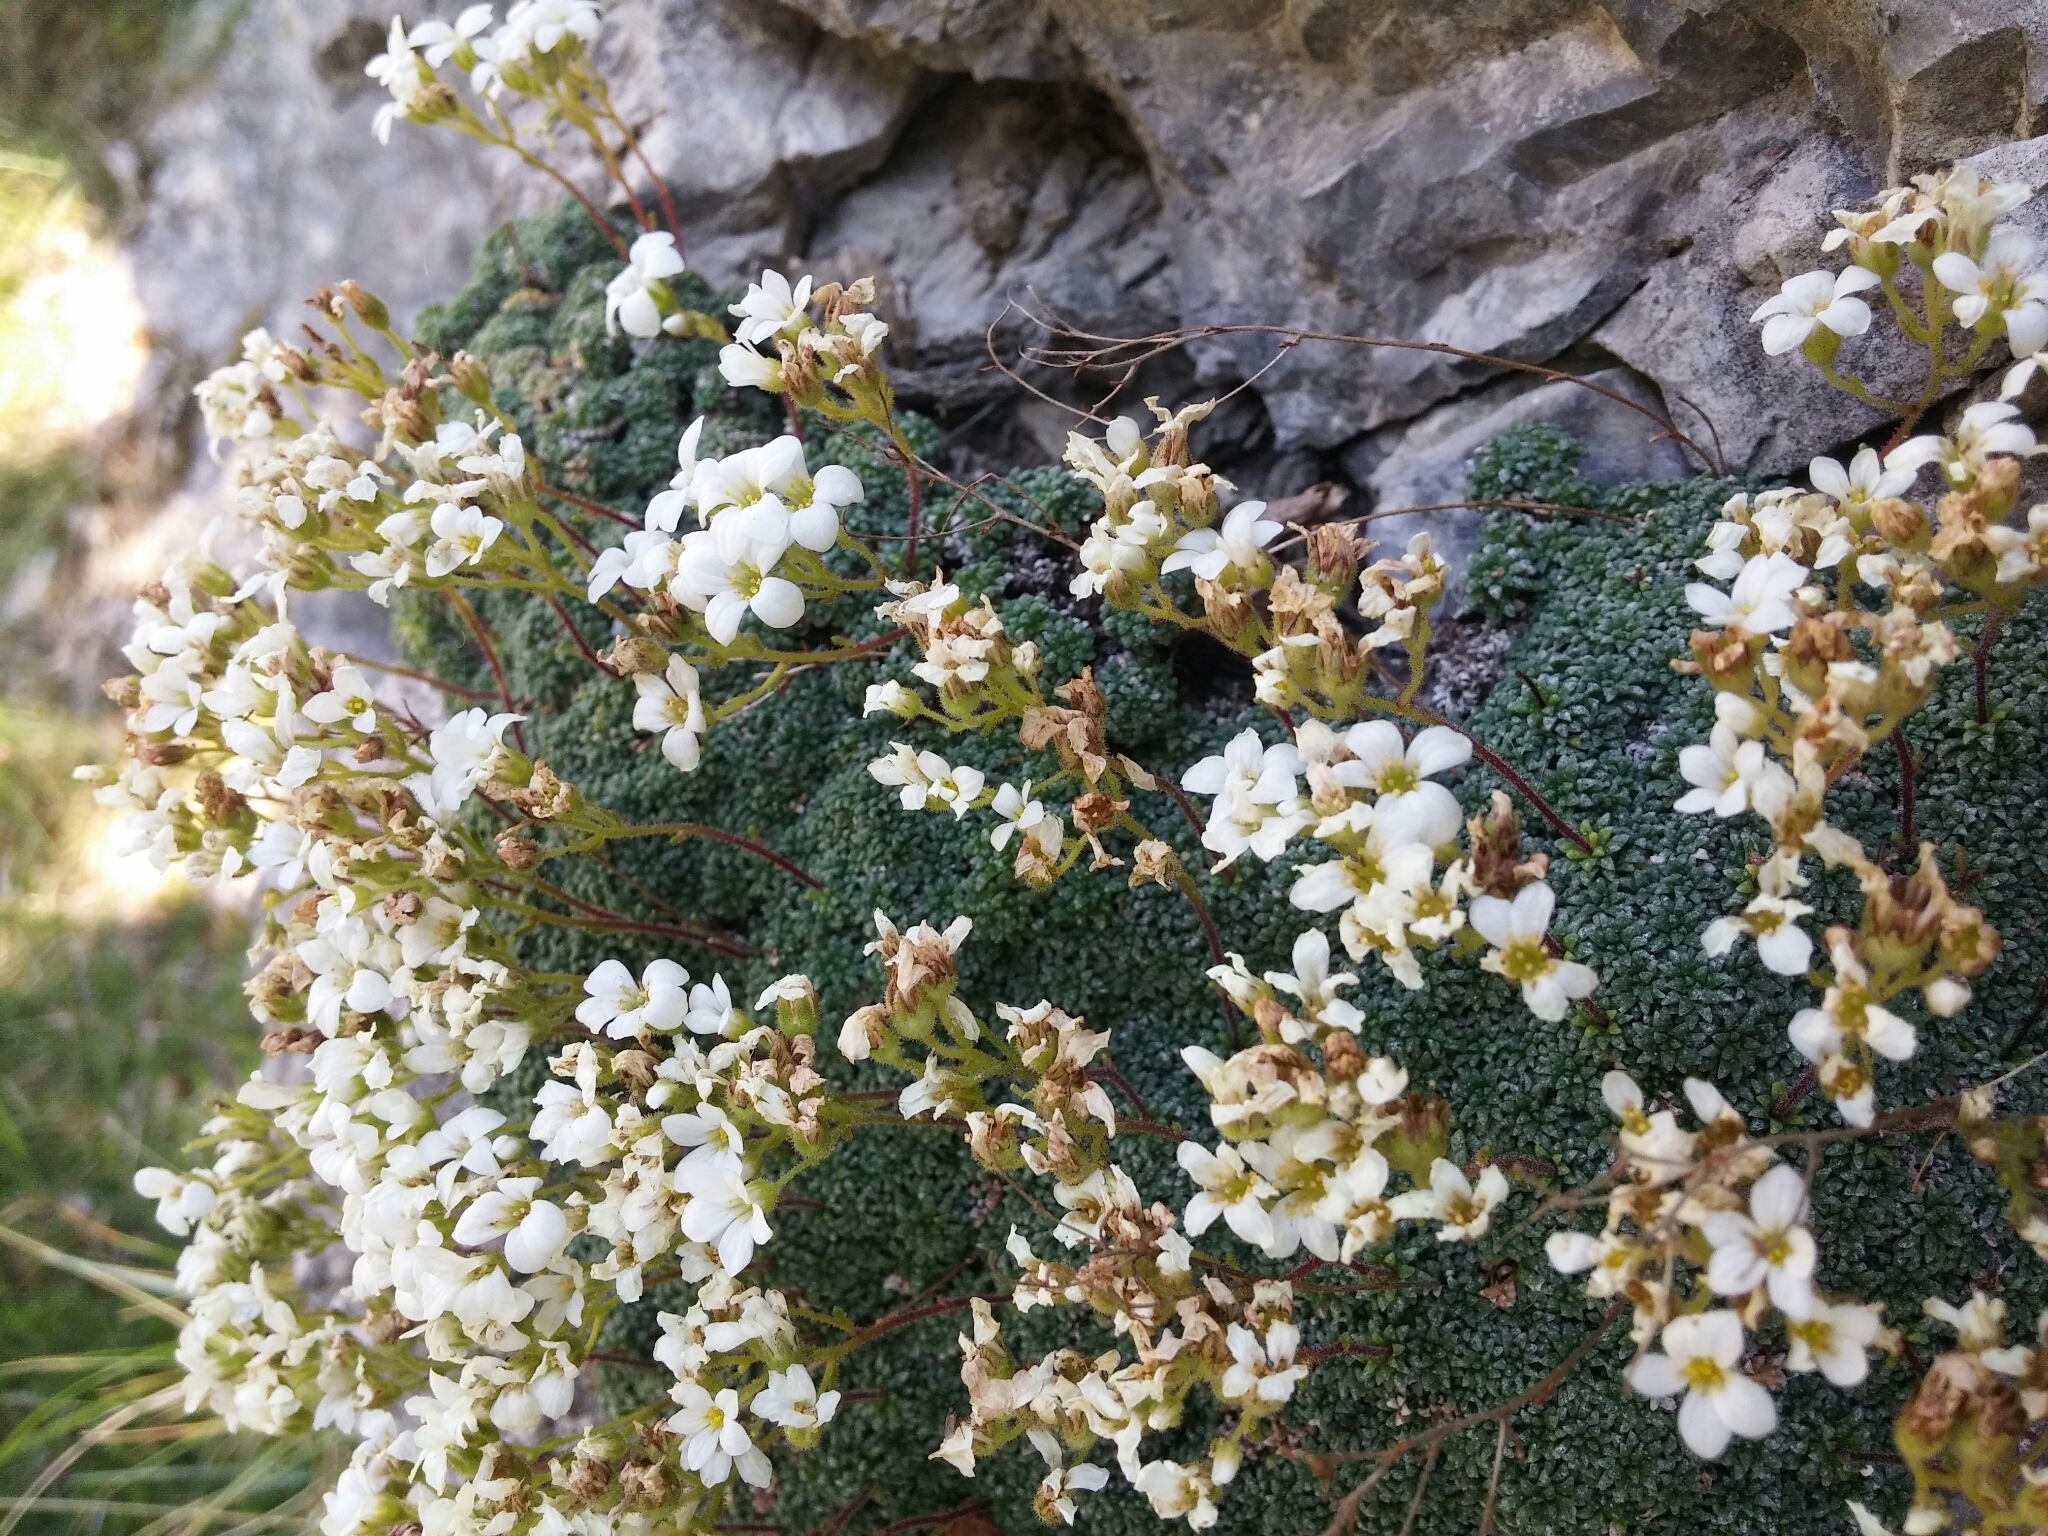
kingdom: Plantae
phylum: Tracheophyta
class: Magnoliopsida
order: Saxifragales
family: Saxifragaceae
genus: Saxifraga
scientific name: Saxifraga caesia
